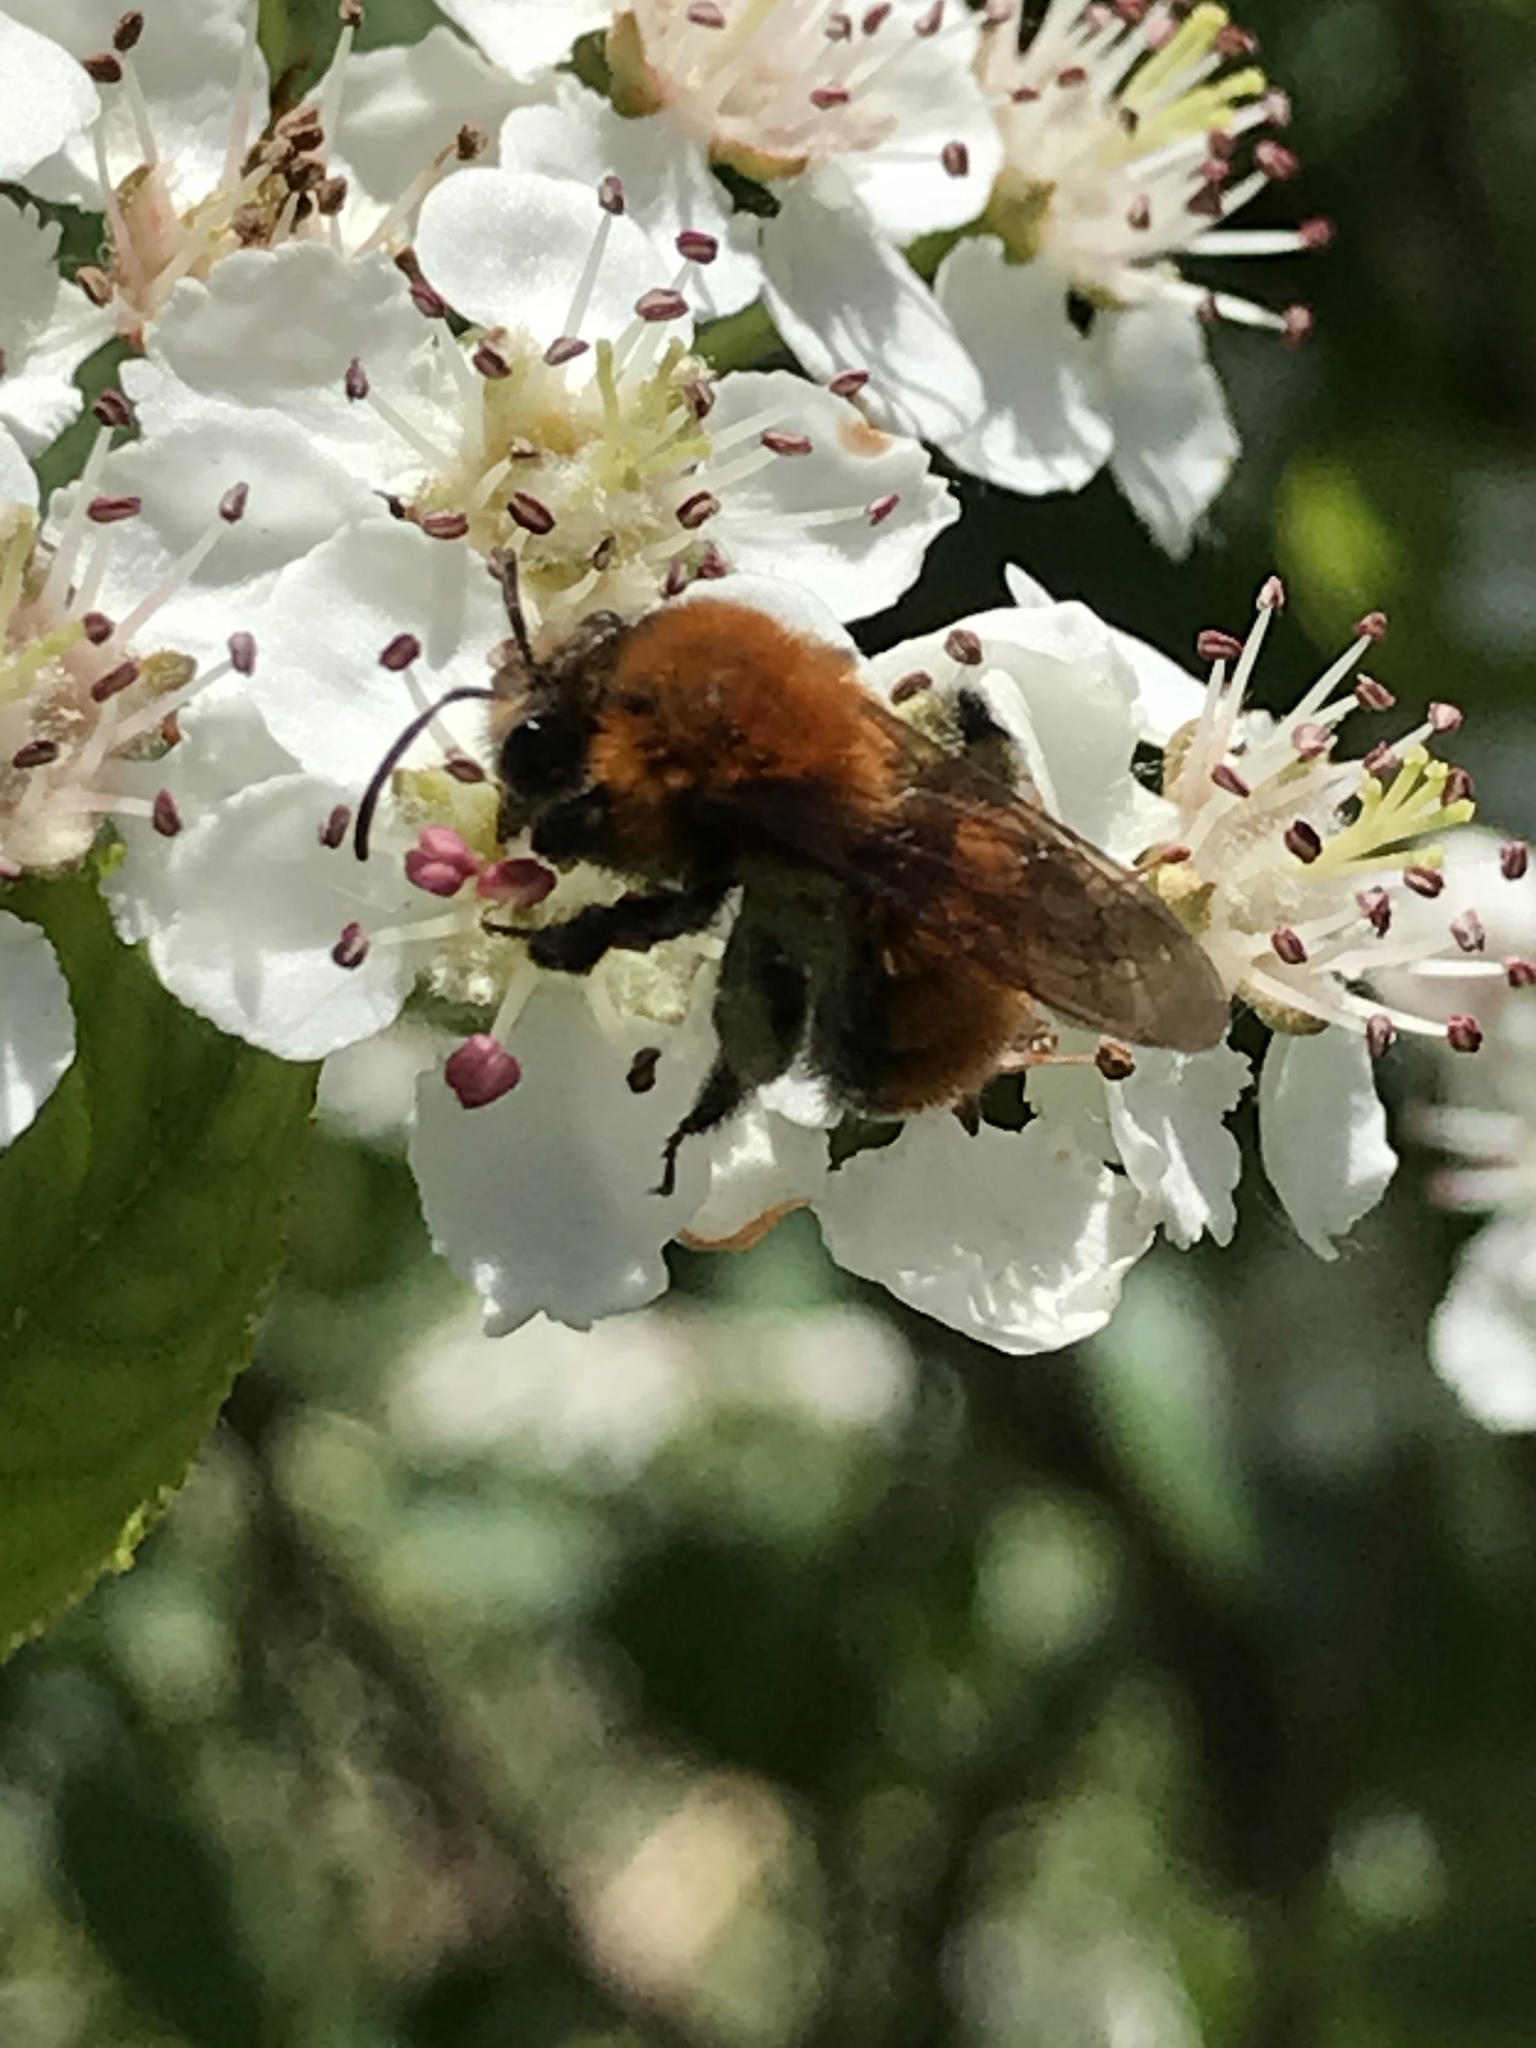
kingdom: Animalia
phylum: Arthropoda
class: Insecta
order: Hymenoptera
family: Andrenidae
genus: Andrena
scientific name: Andrena milwaukeensis
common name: Milwaukee mining bee
